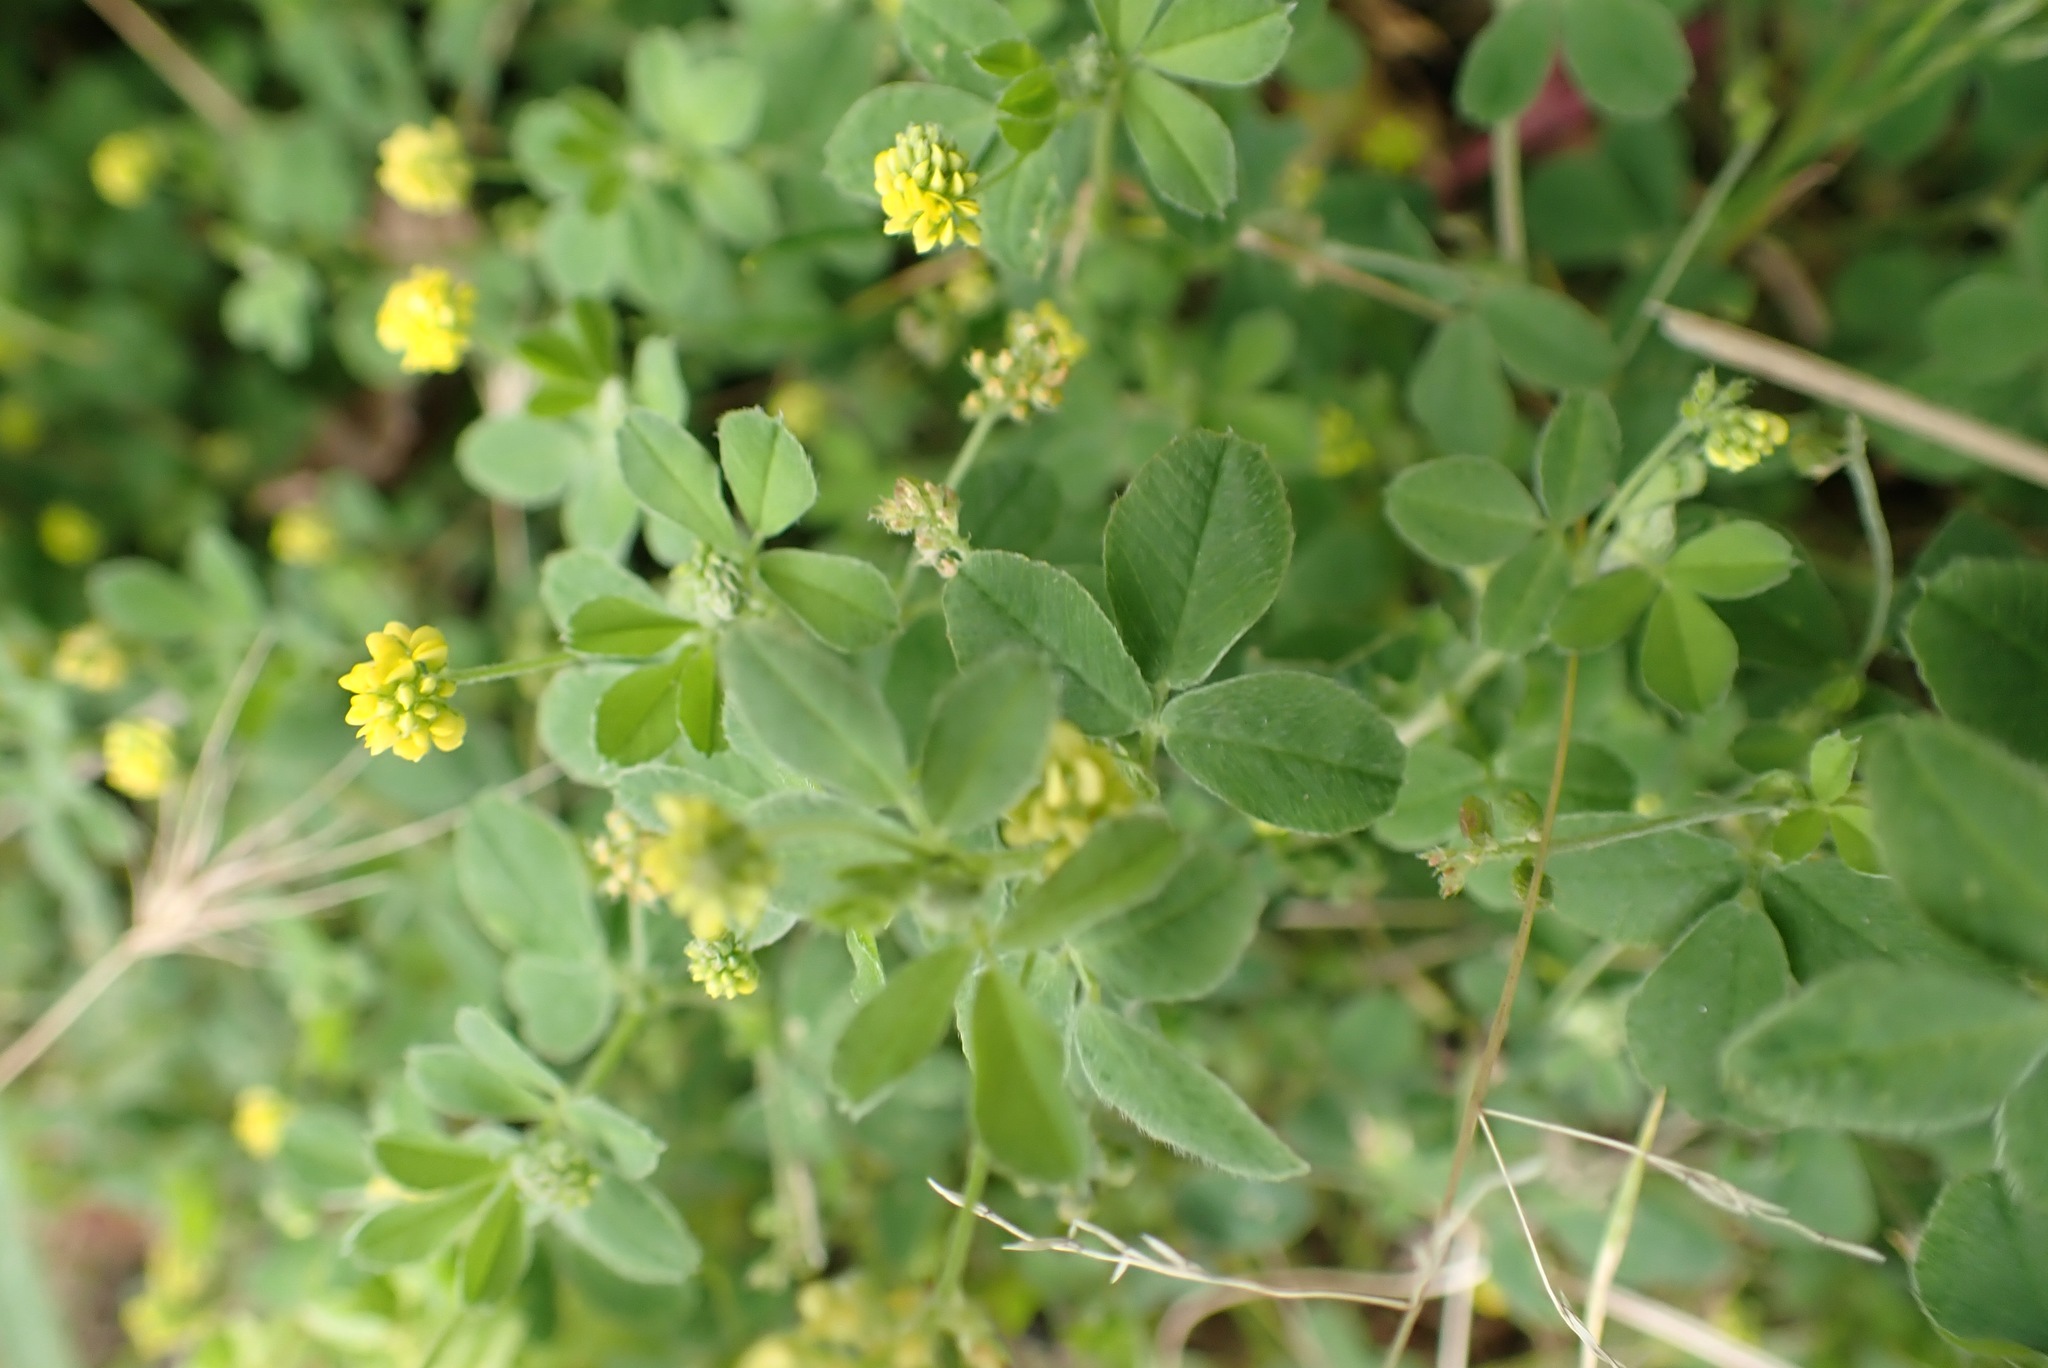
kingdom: Plantae
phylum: Tracheophyta
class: Magnoliopsida
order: Fabales
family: Fabaceae
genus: Medicago
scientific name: Medicago lupulina
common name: Black medick
